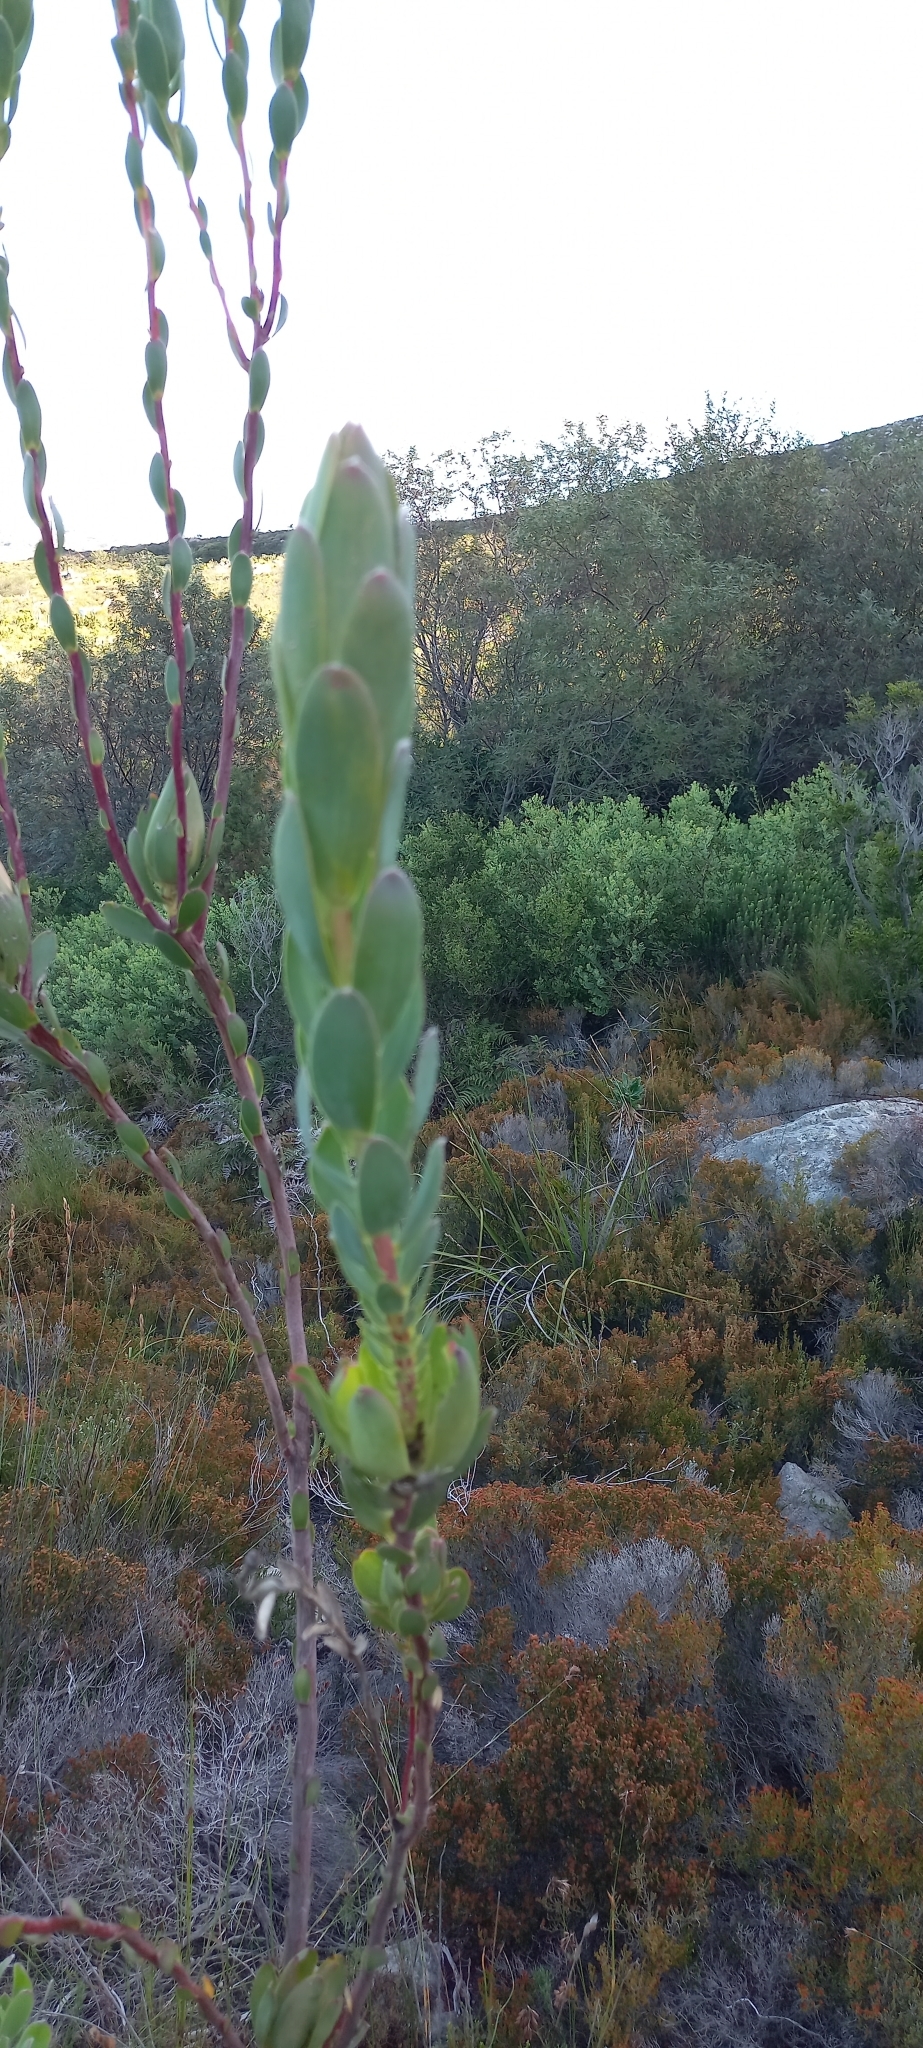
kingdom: Plantae
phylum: Tracheophyta
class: Magnoliopsida
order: Proteales
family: Proteaceae
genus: Leucadendron
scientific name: Leucadendron discolor
